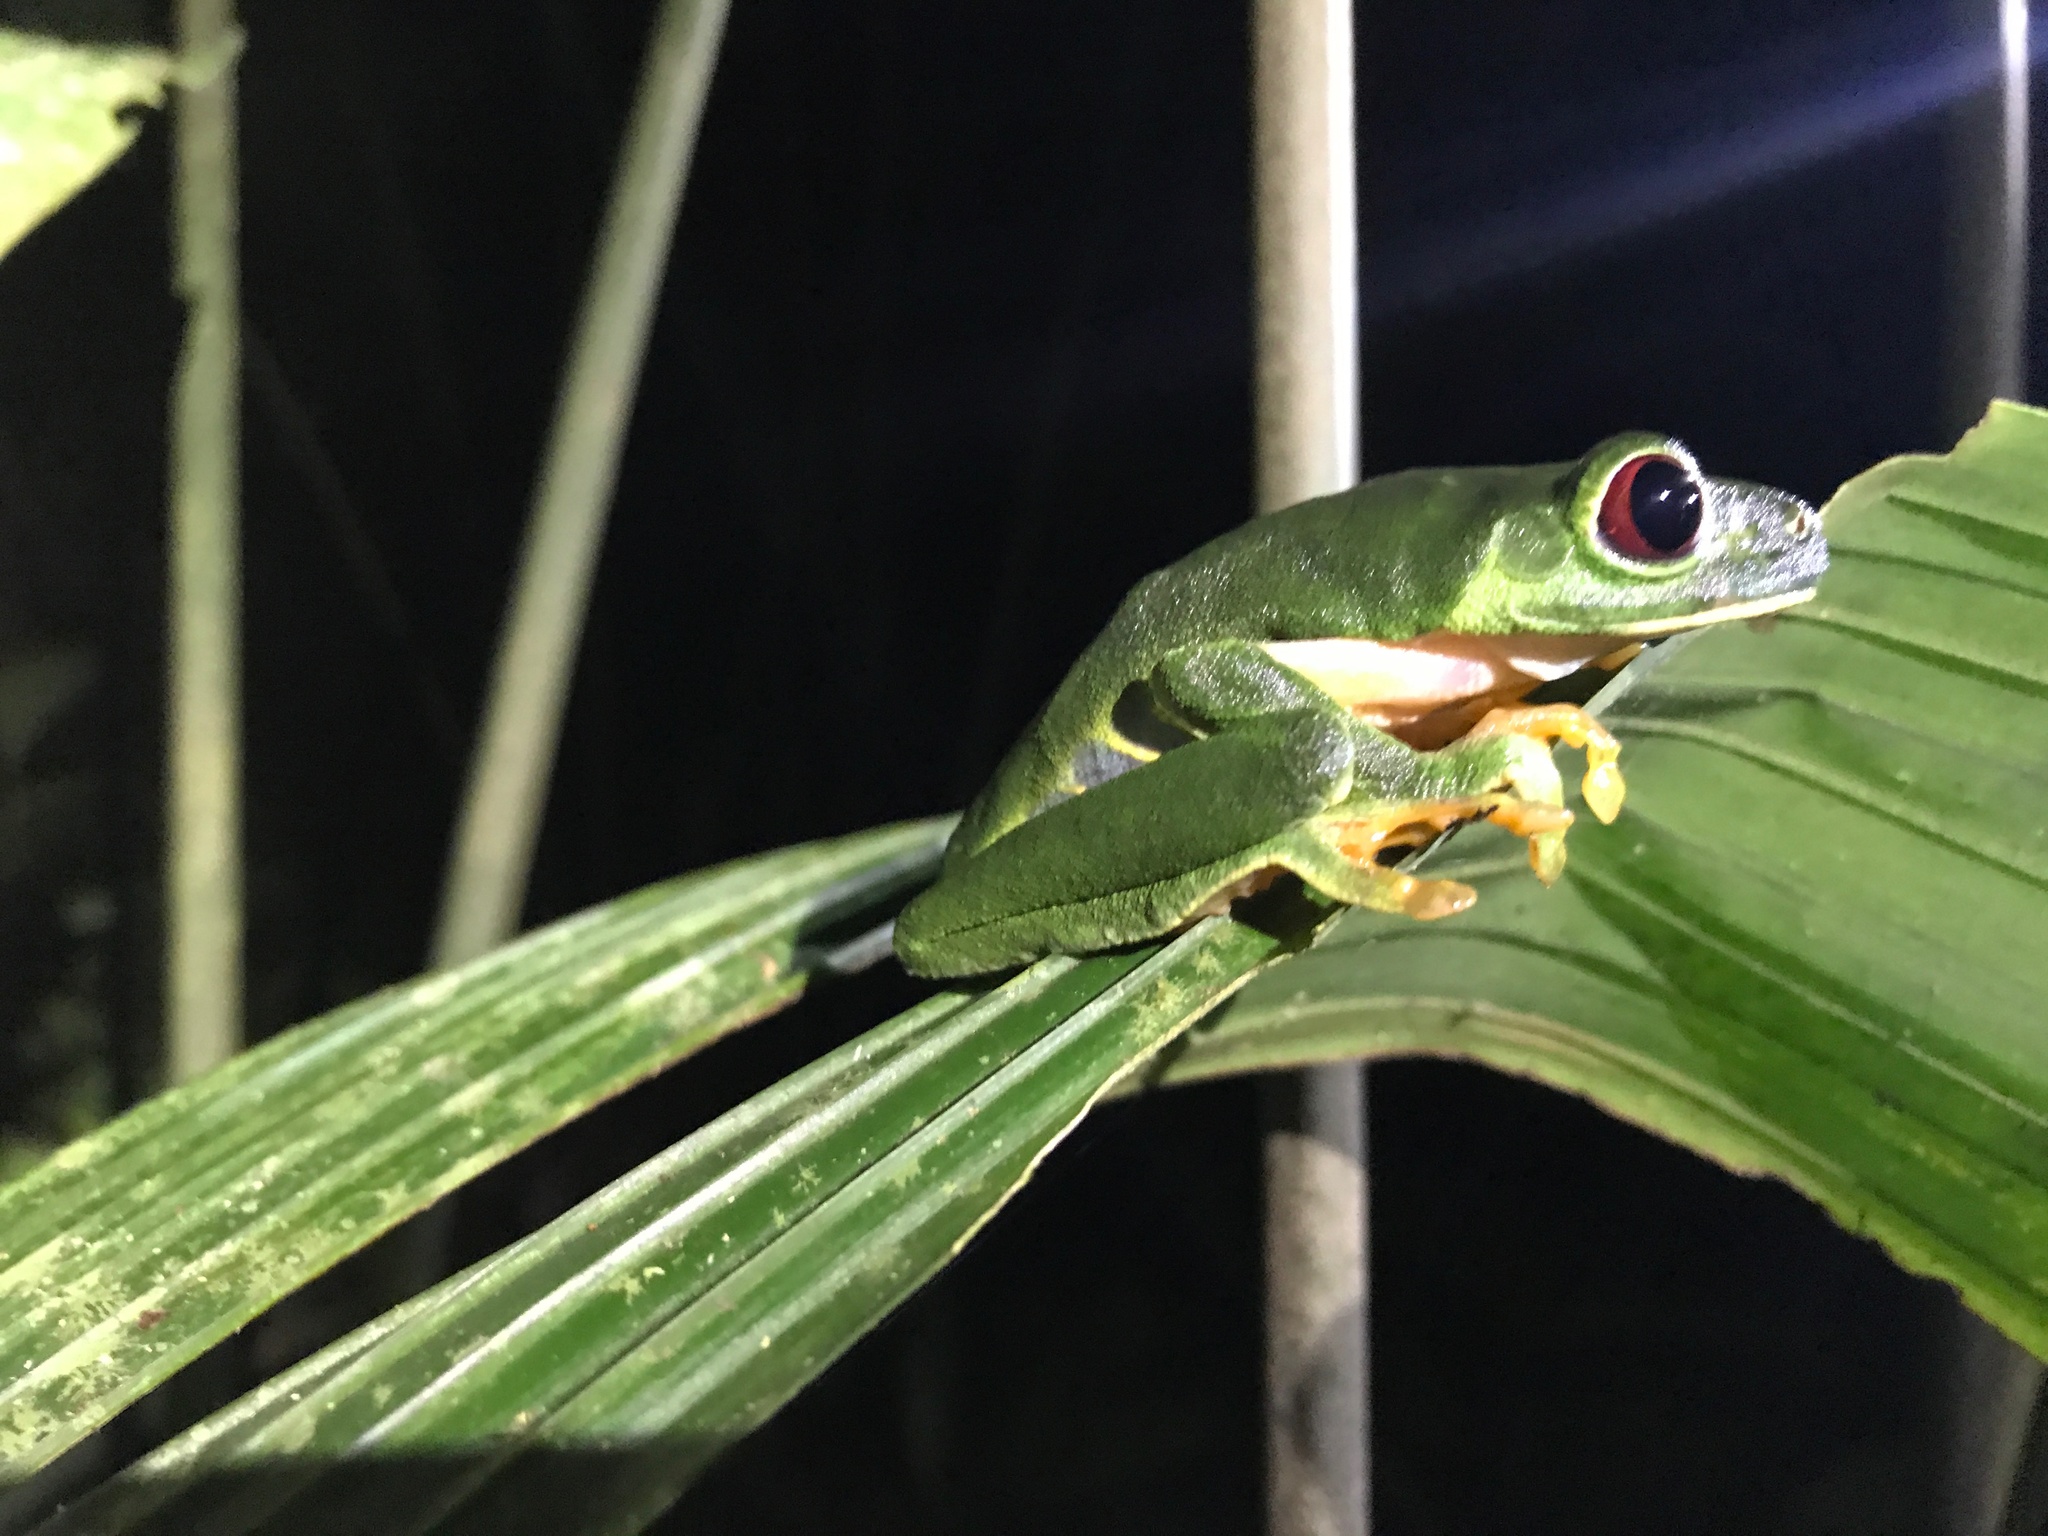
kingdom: Animalia
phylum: Chordata
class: Amphibia
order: Anura
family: Phyllomedusidae
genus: Agalychnis
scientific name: Agalychnis callidryas
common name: Red-eyed treefrog
